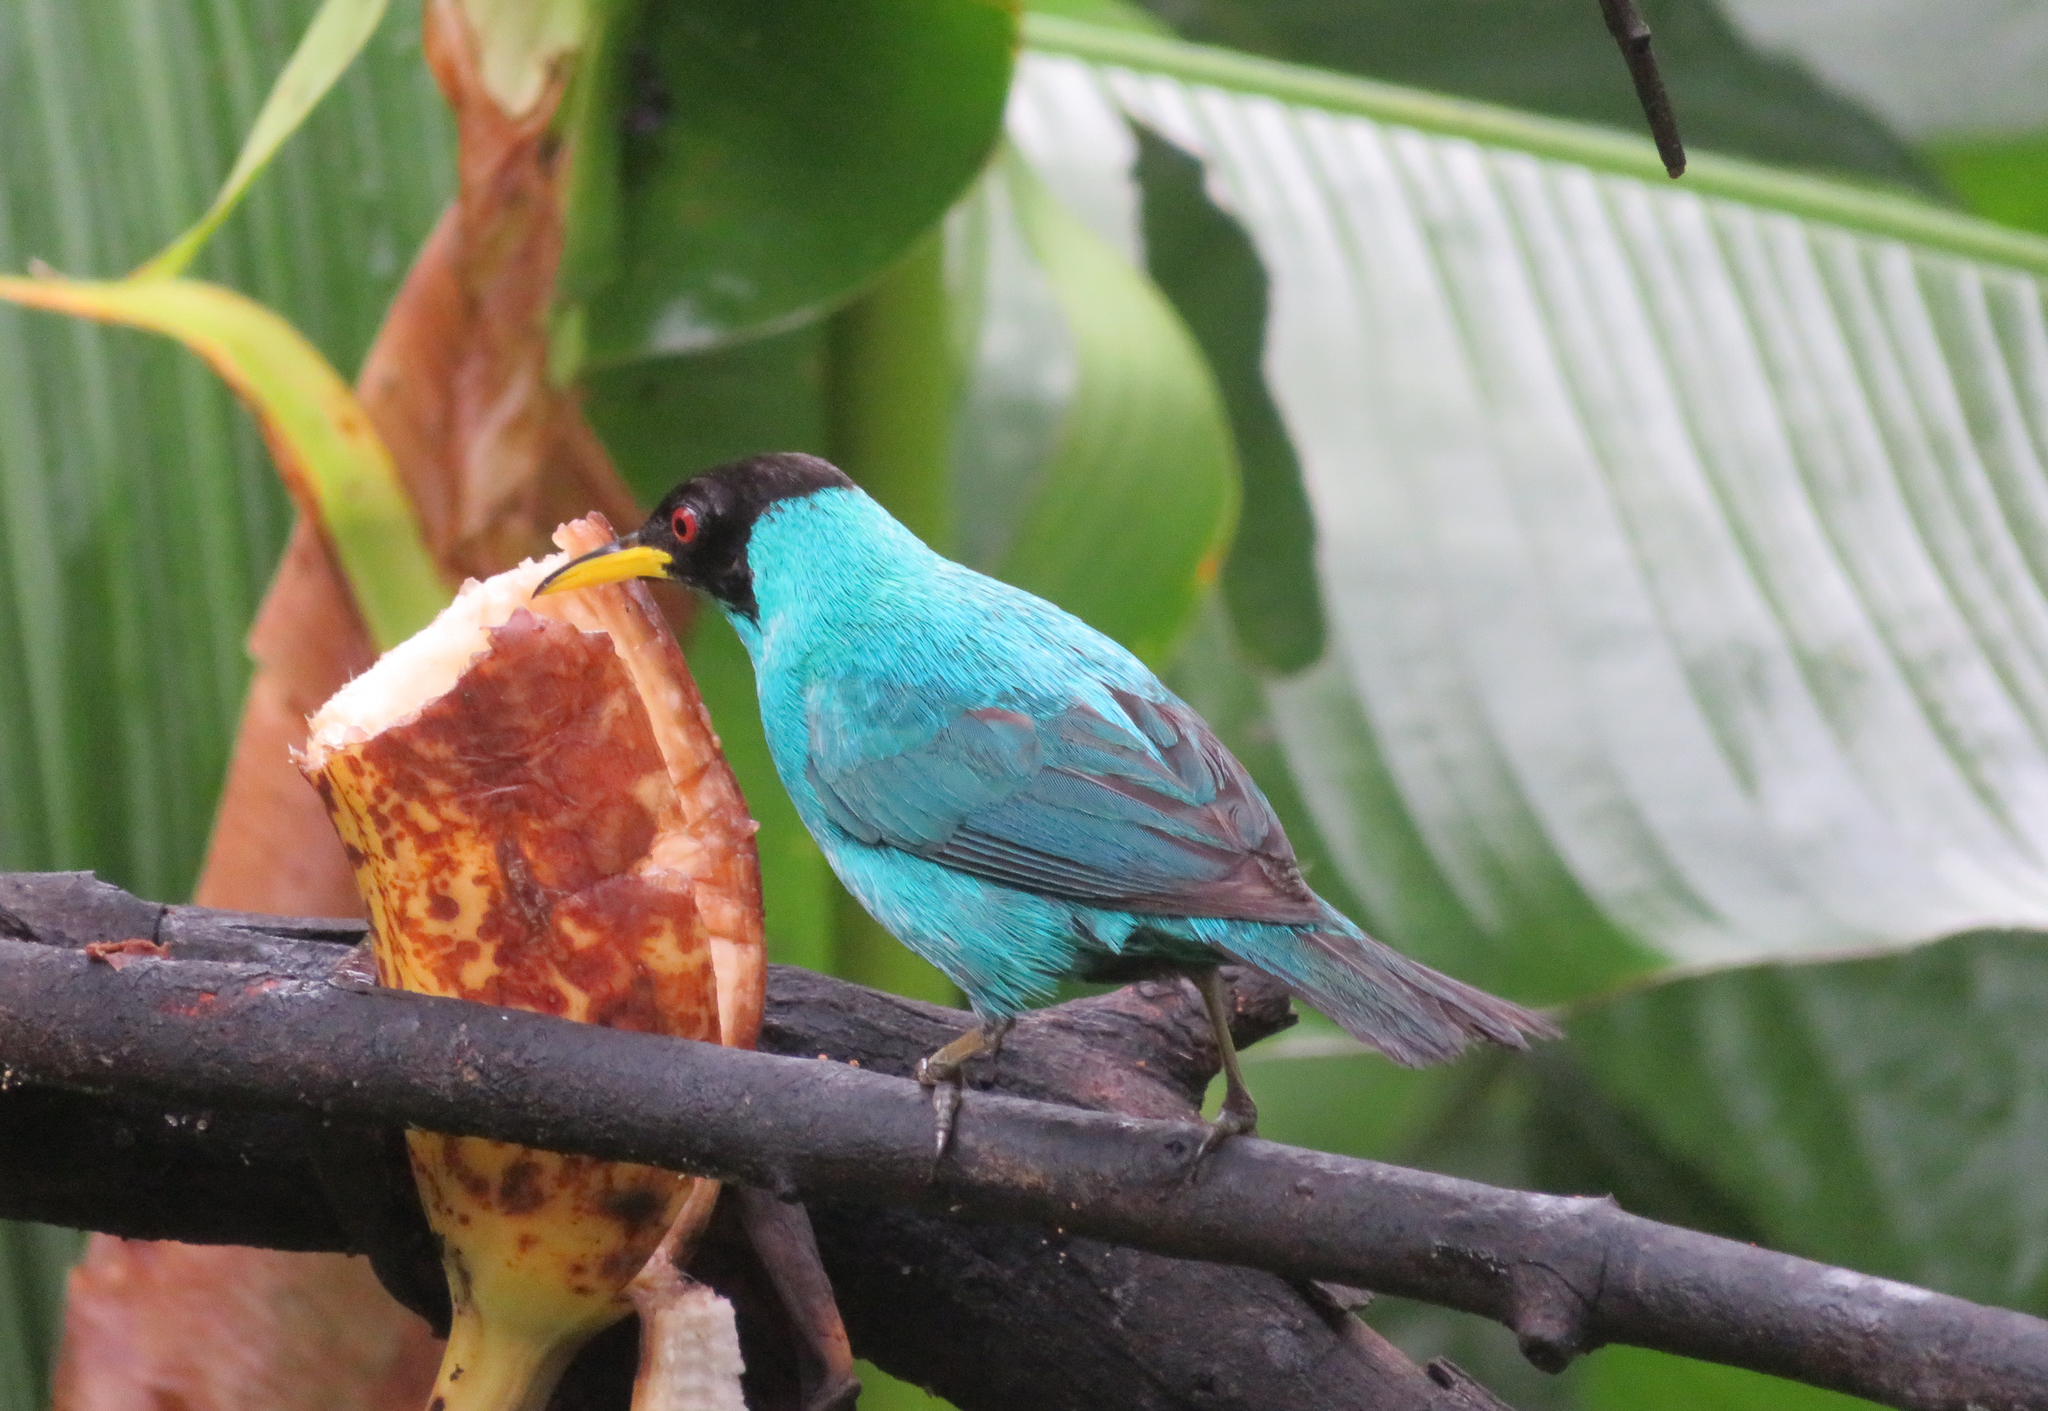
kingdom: Animalia
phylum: Chordata
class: Aves
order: Passeriformes
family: Thraupidae
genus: Chlorophanes
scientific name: Chlorophanes spiza
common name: Green honeycreeper
